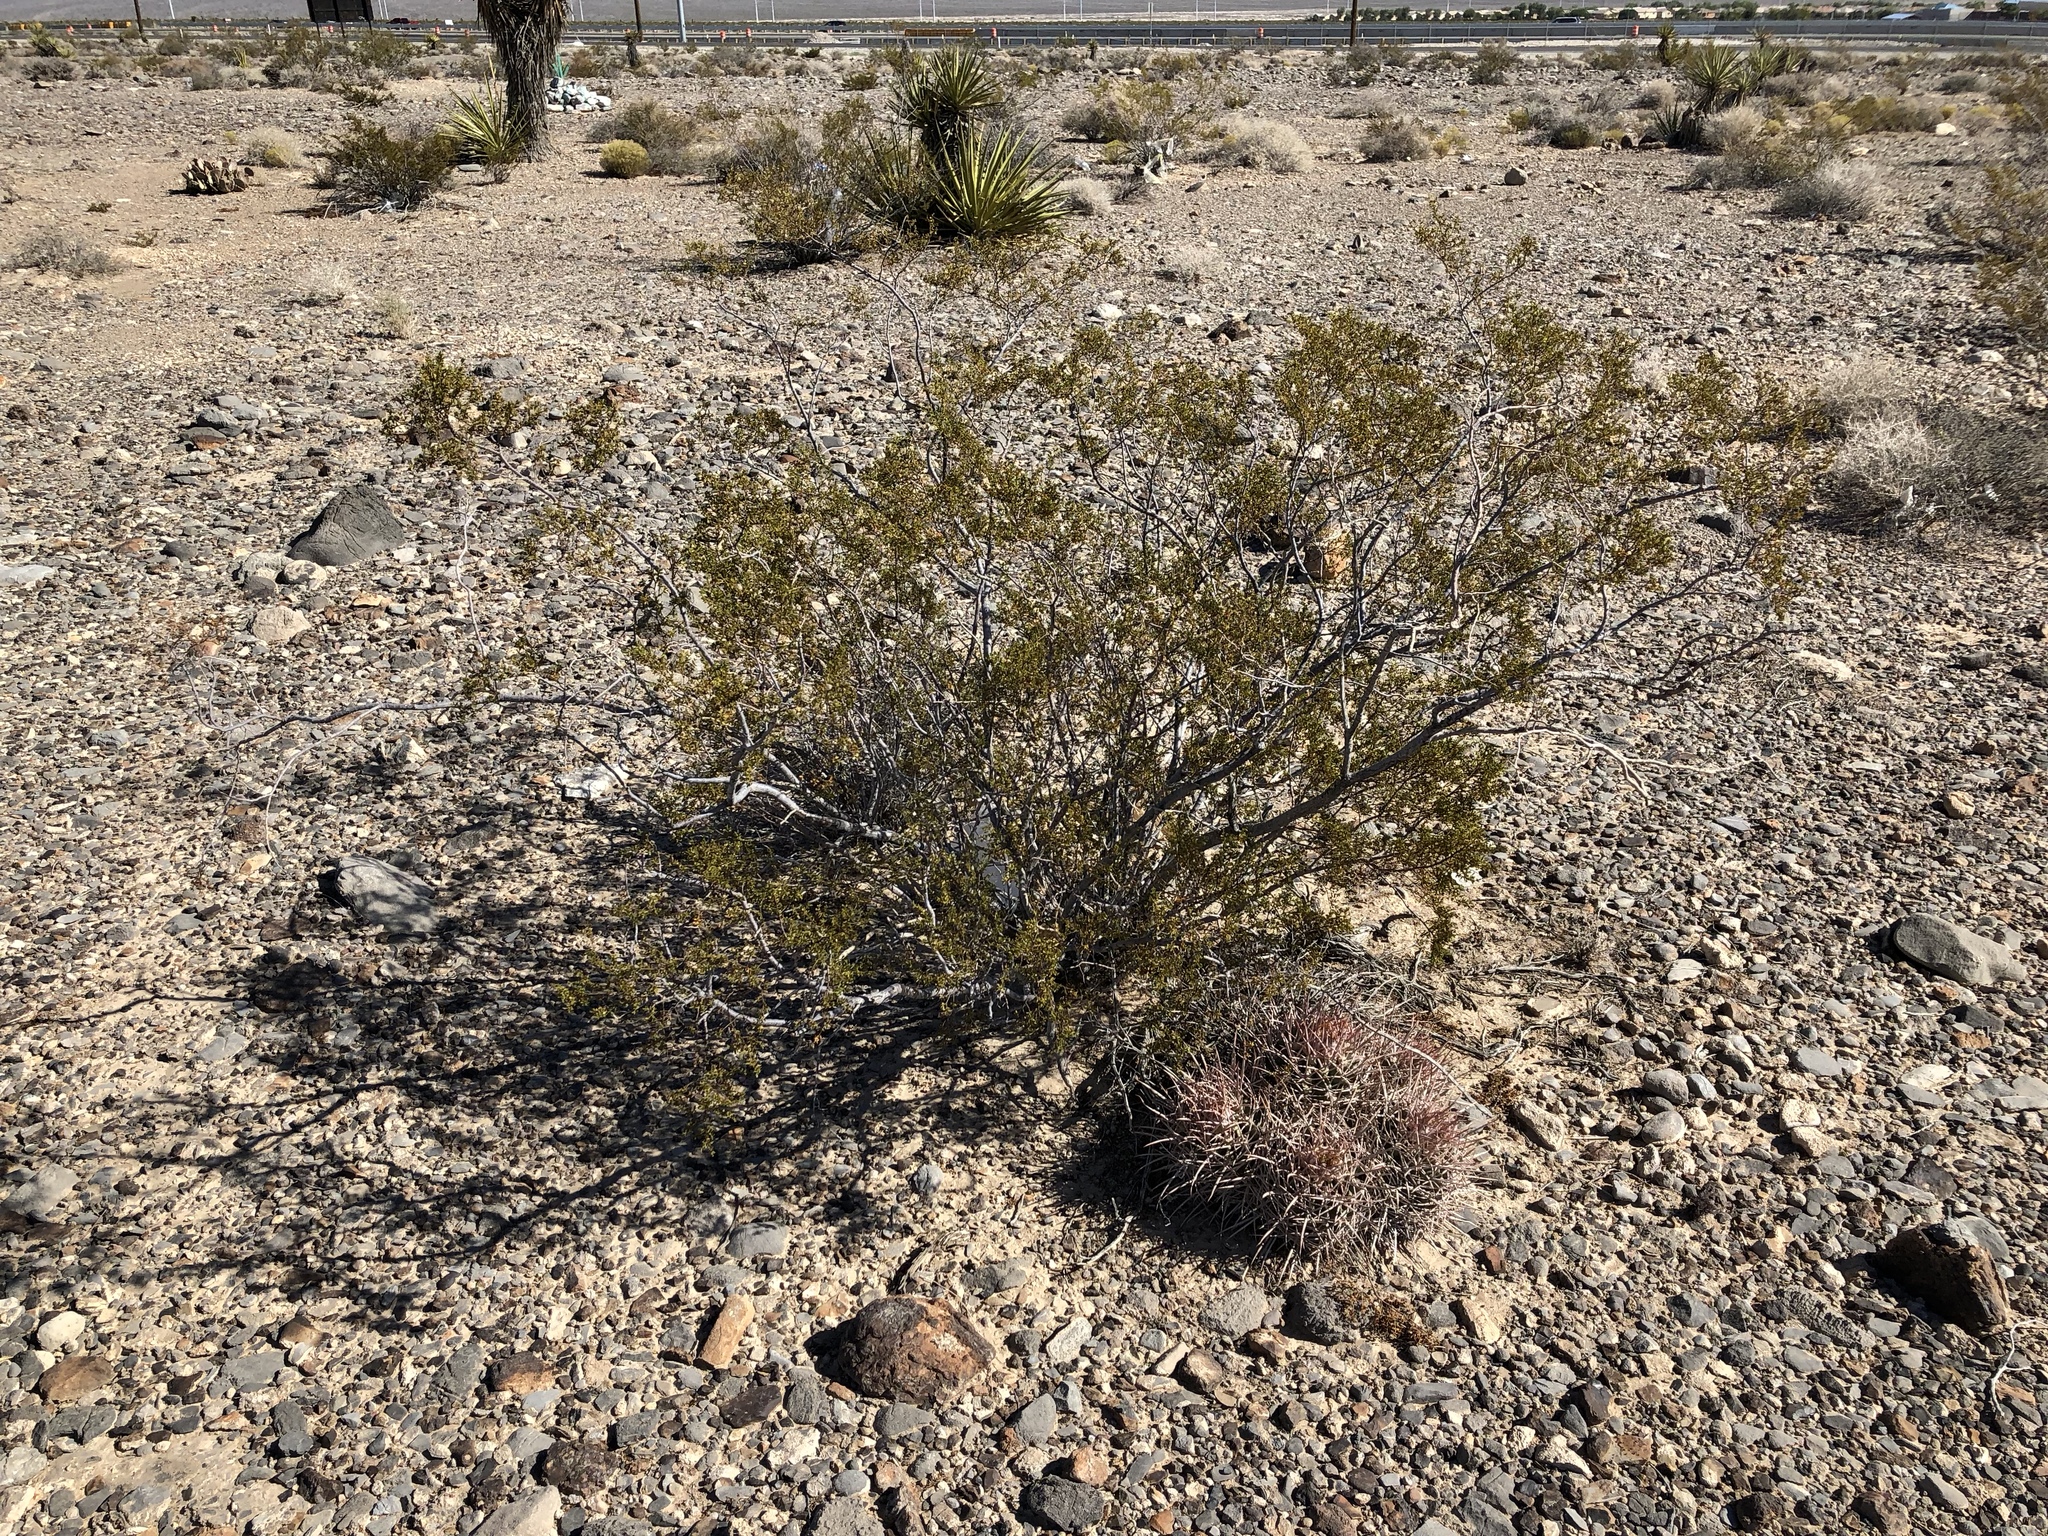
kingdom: Plantae
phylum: Tracheophyta
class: Magnoliopsida
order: Zygophyllales
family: Zygophyllaceae
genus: Larrea
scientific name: Larrea tridentata
